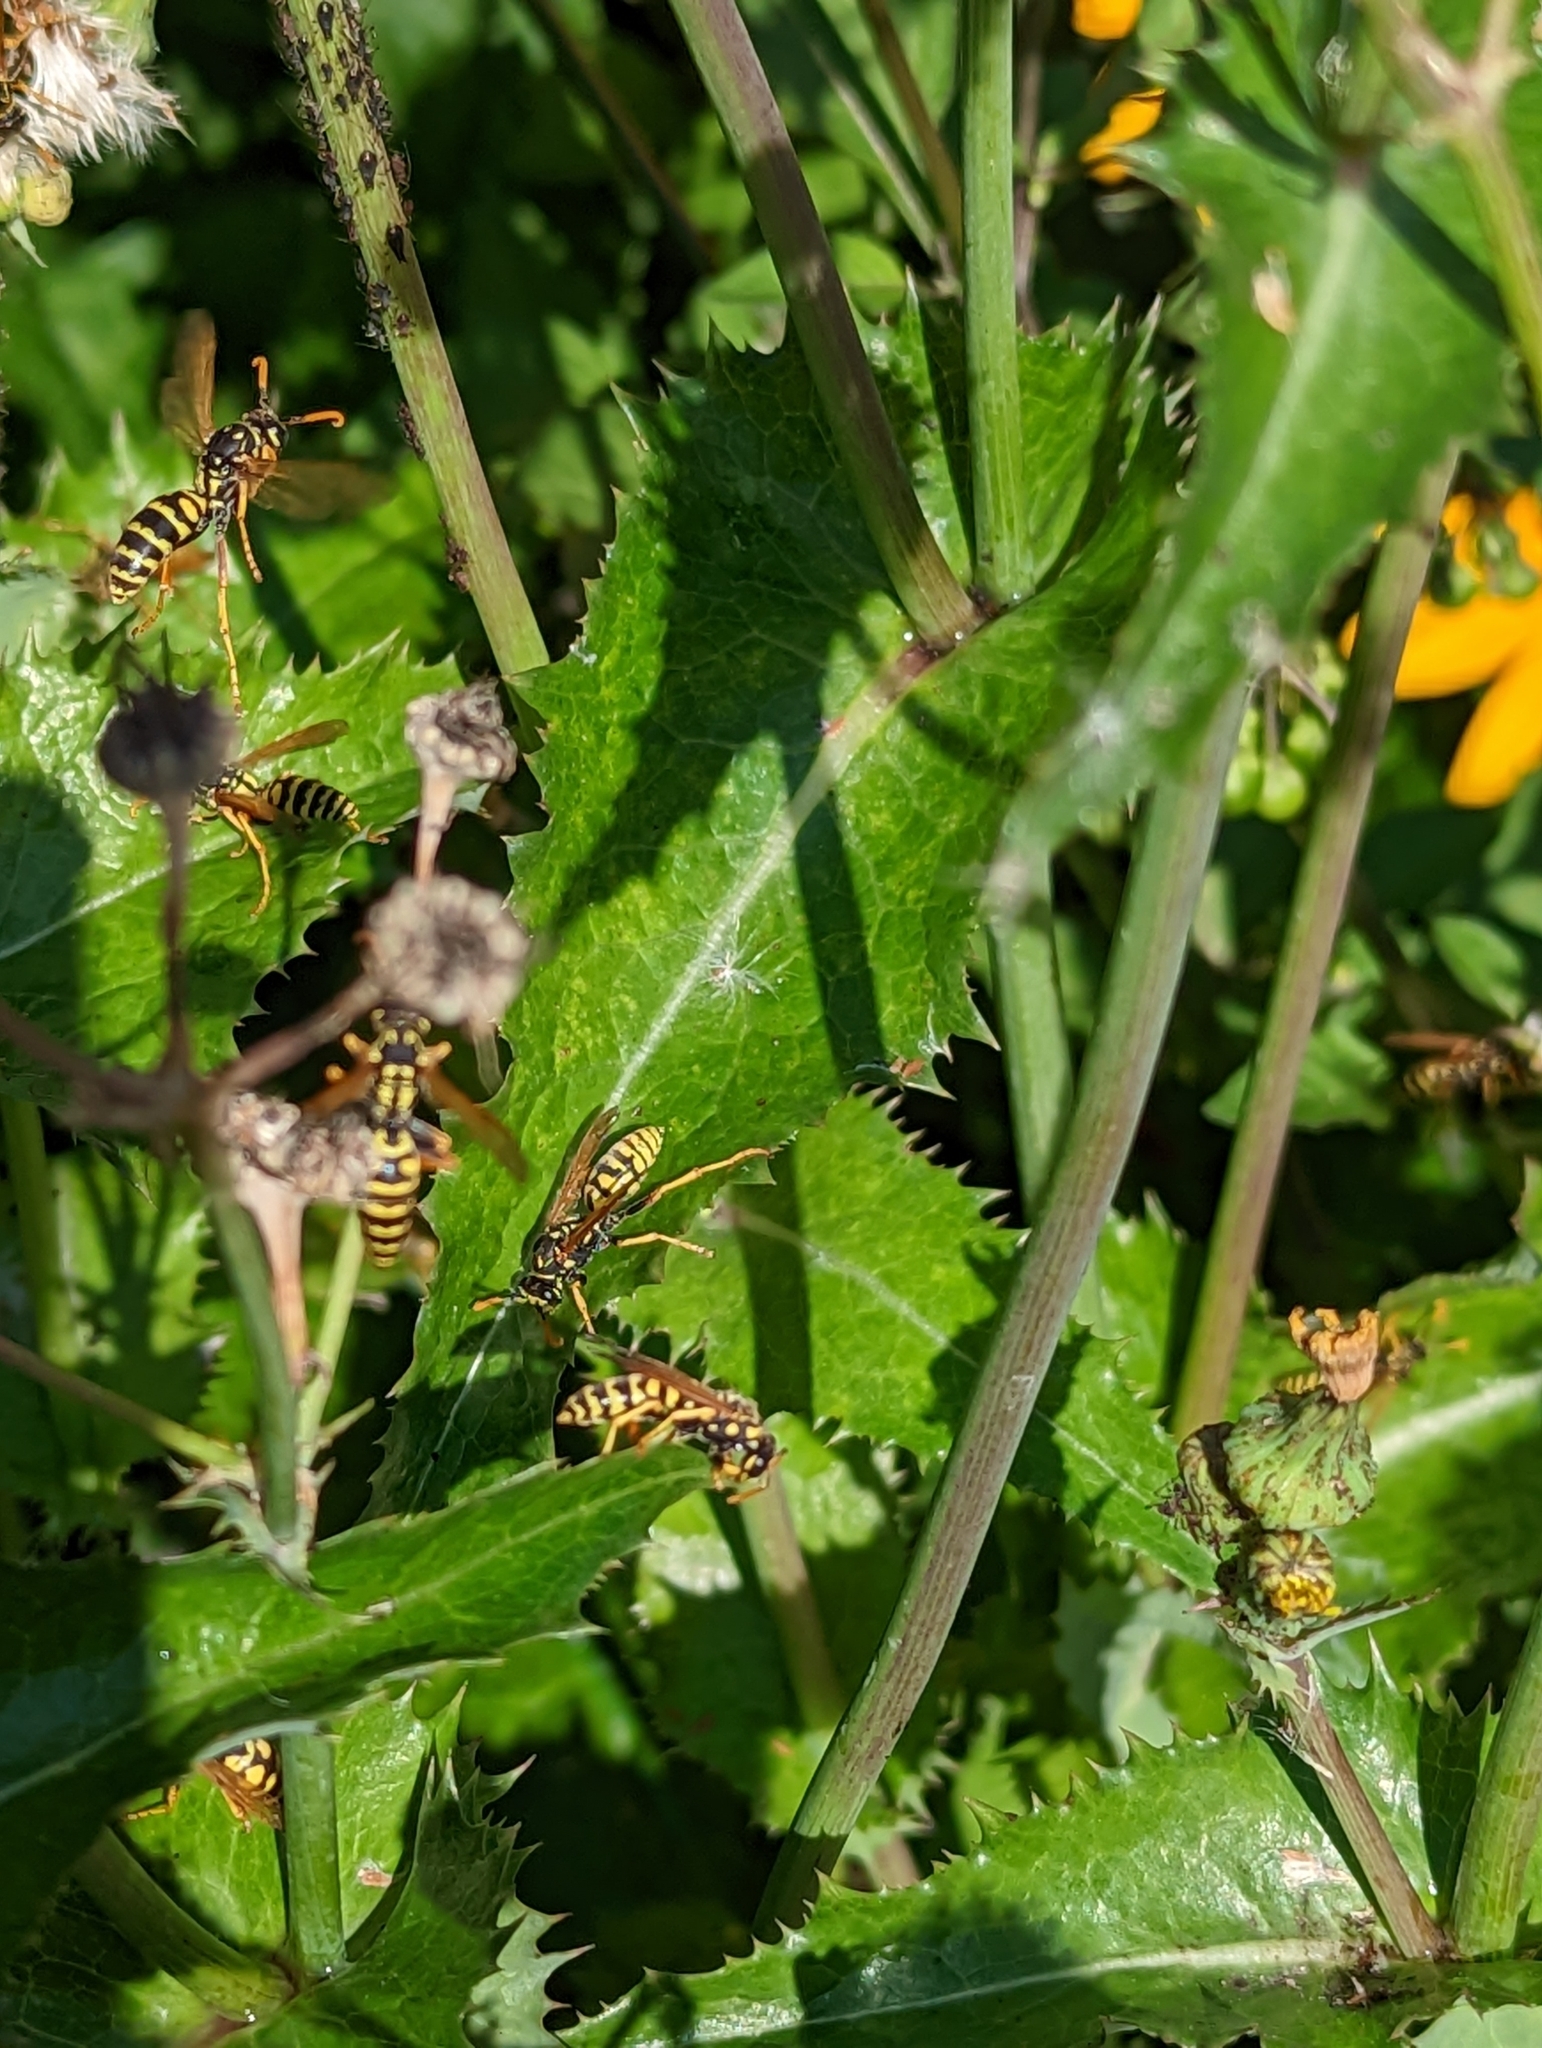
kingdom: Animalia
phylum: Arthropoda
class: Insecta
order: Hymenoptera
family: Eumenidae
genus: Polistes
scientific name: Polistes dominula
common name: Paper wasp
